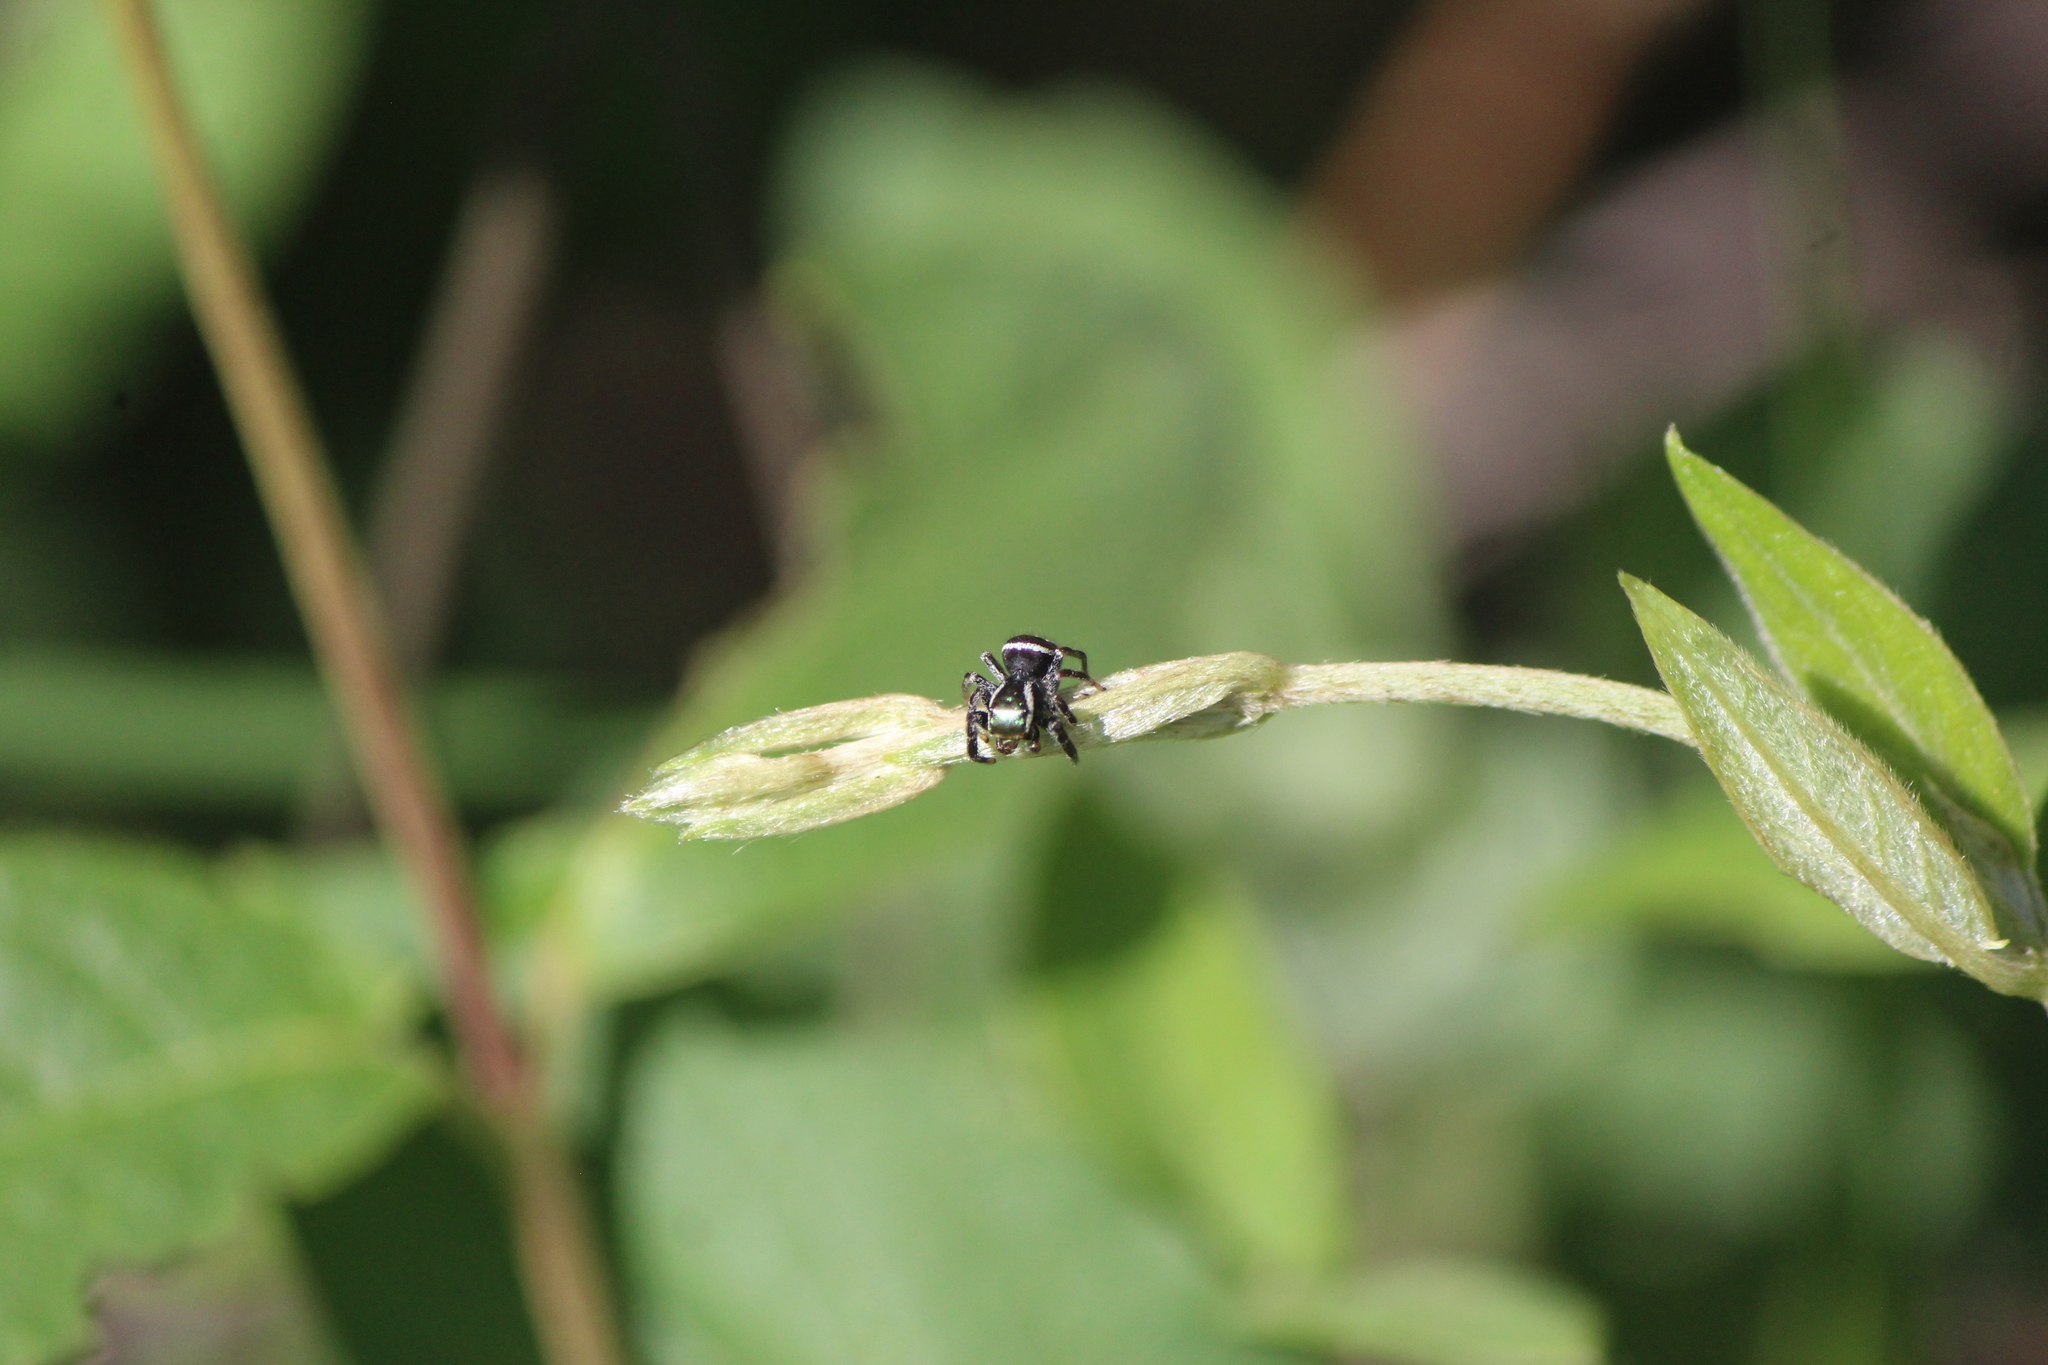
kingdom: Animalia
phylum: Arthropoda
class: Arachnida
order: Araneae
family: Salticidae
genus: Paraphidippus
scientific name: Paraphidippus aurantius
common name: Jumping spiders
